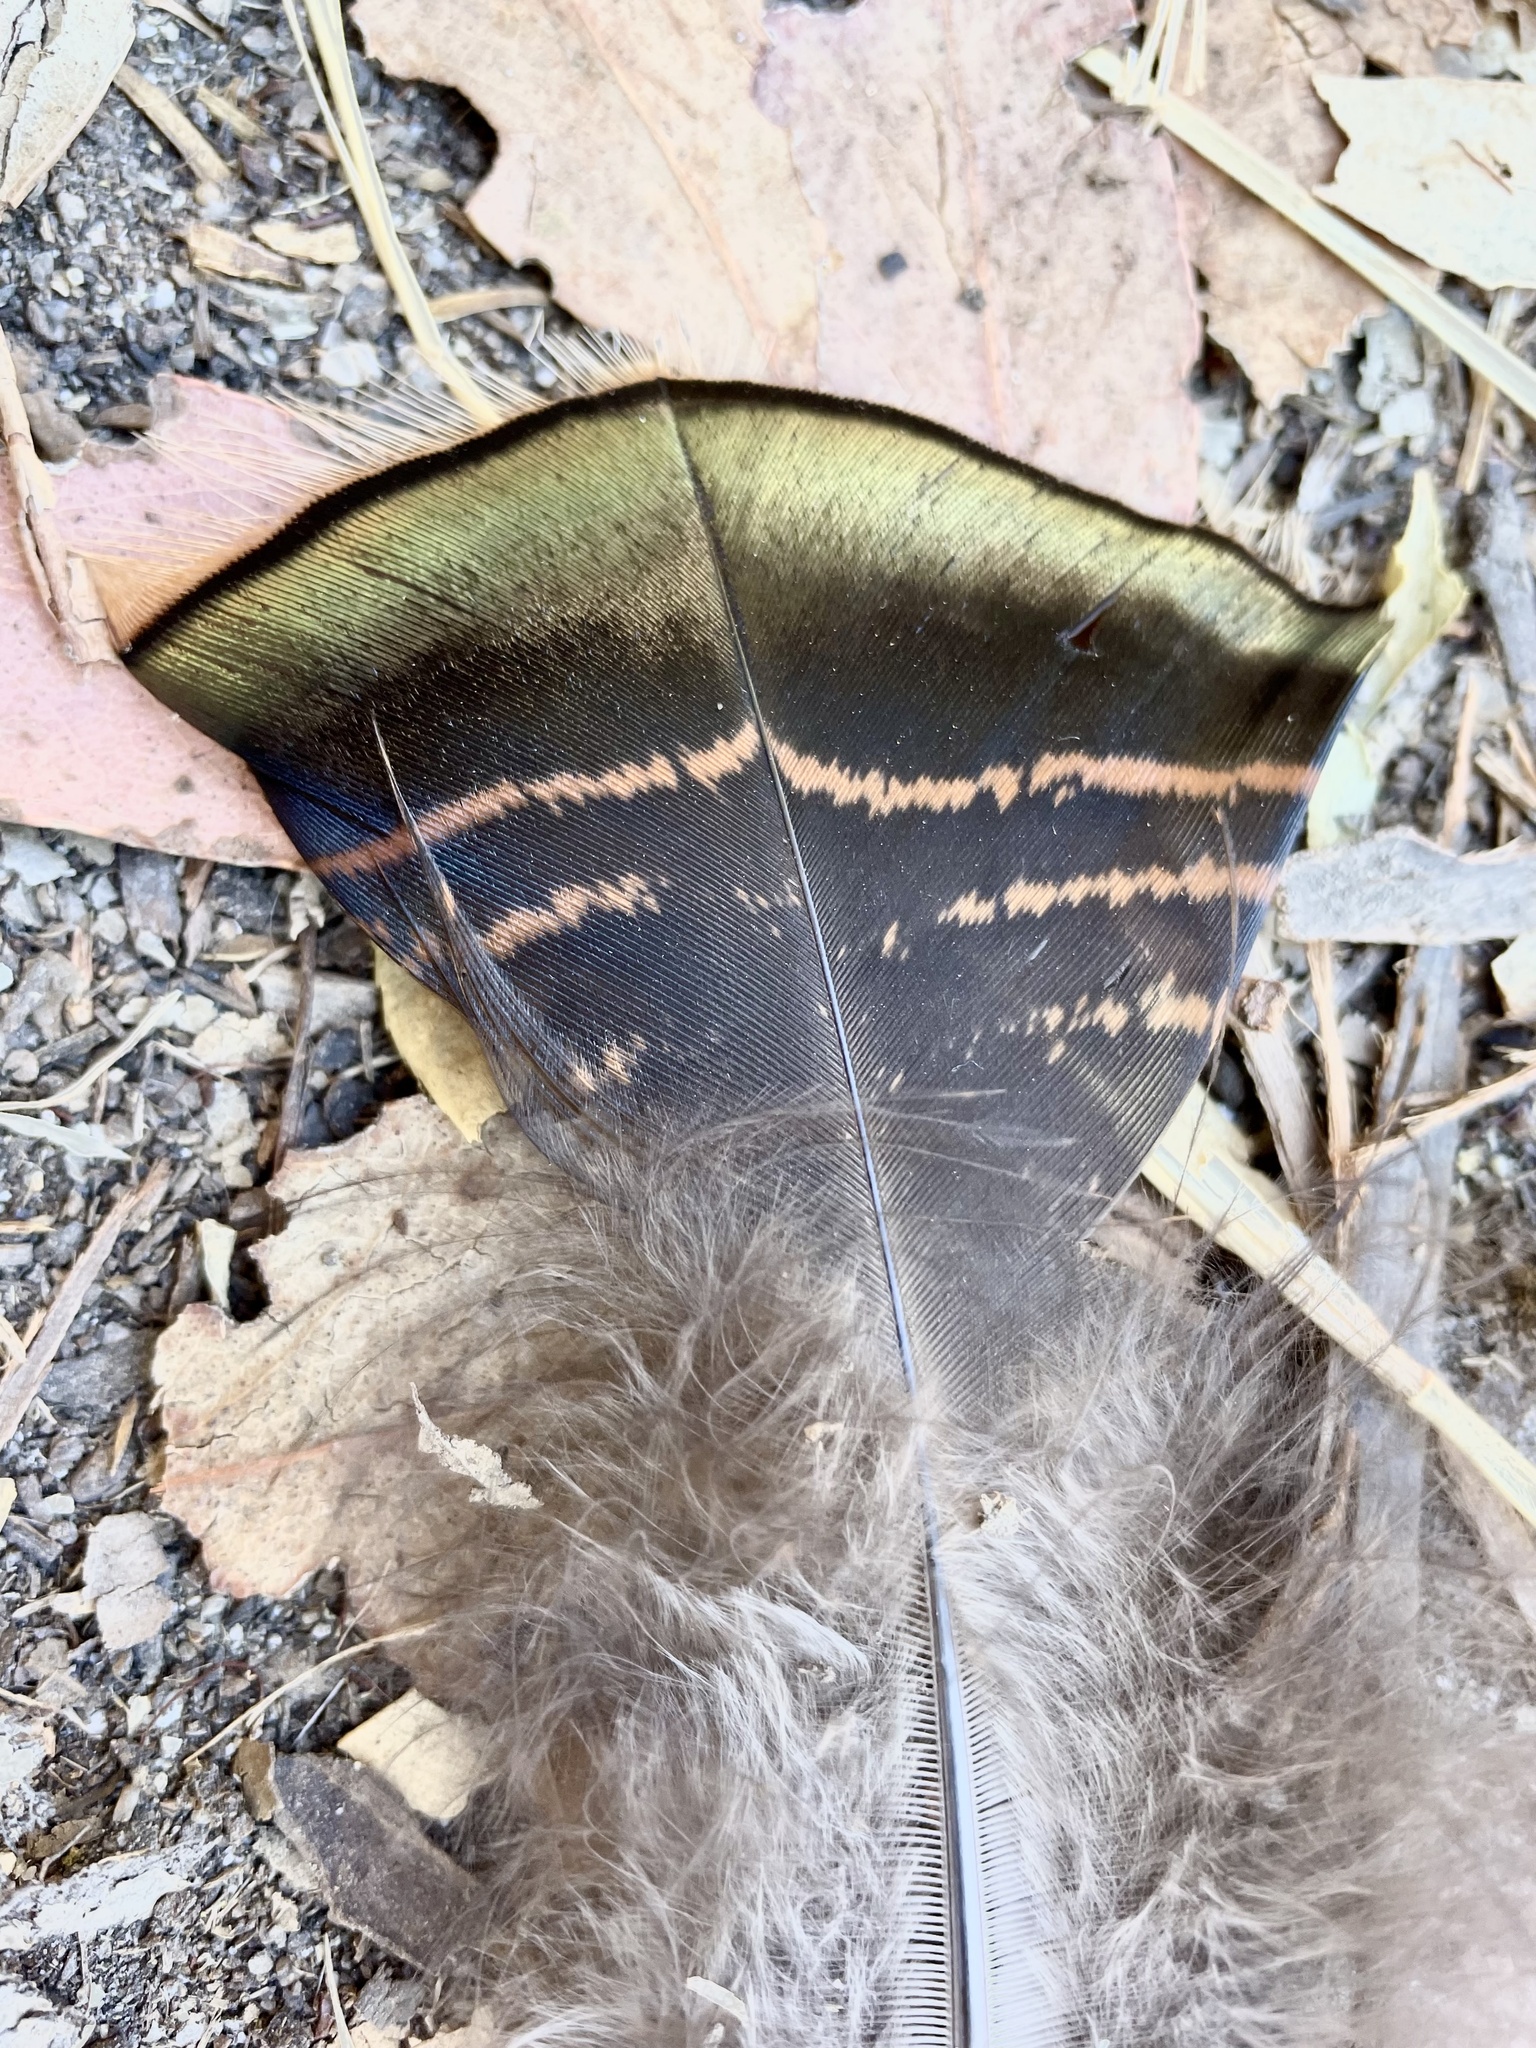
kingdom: Animalia
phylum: Chordata
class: Aves
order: Galliformes
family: Phasianidae
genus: Meleagris
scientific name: Meleagris gallopavo
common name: Wild turkey
